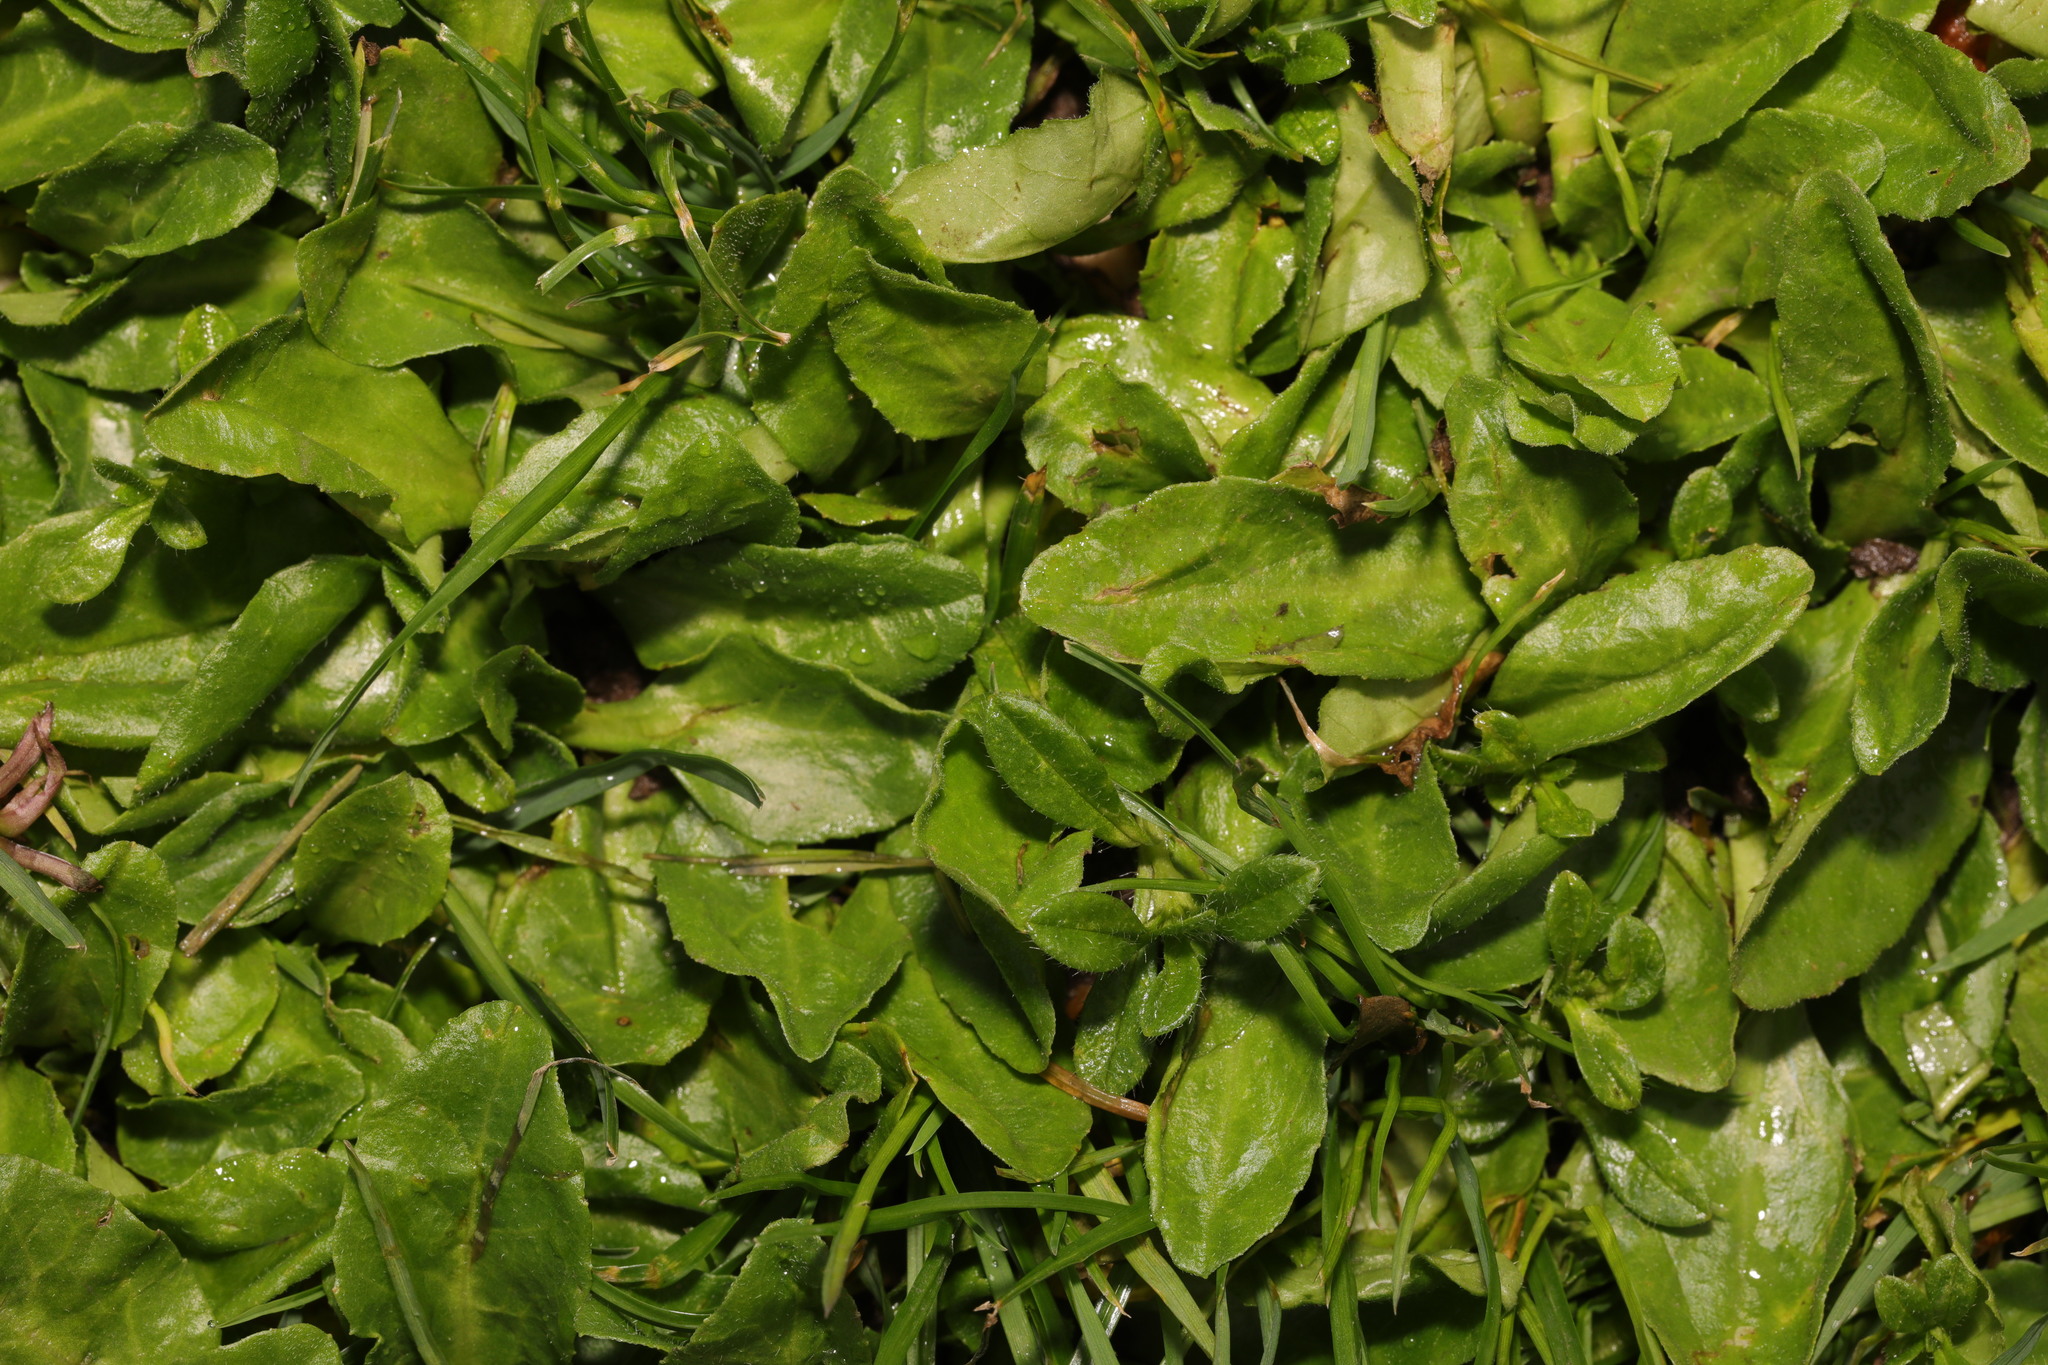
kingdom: Plantae
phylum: Tracheophyta
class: Magnoliopsida
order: Asterales
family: Asteraceae
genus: Bellis
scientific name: Bellis perennis
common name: Lawndaisy
